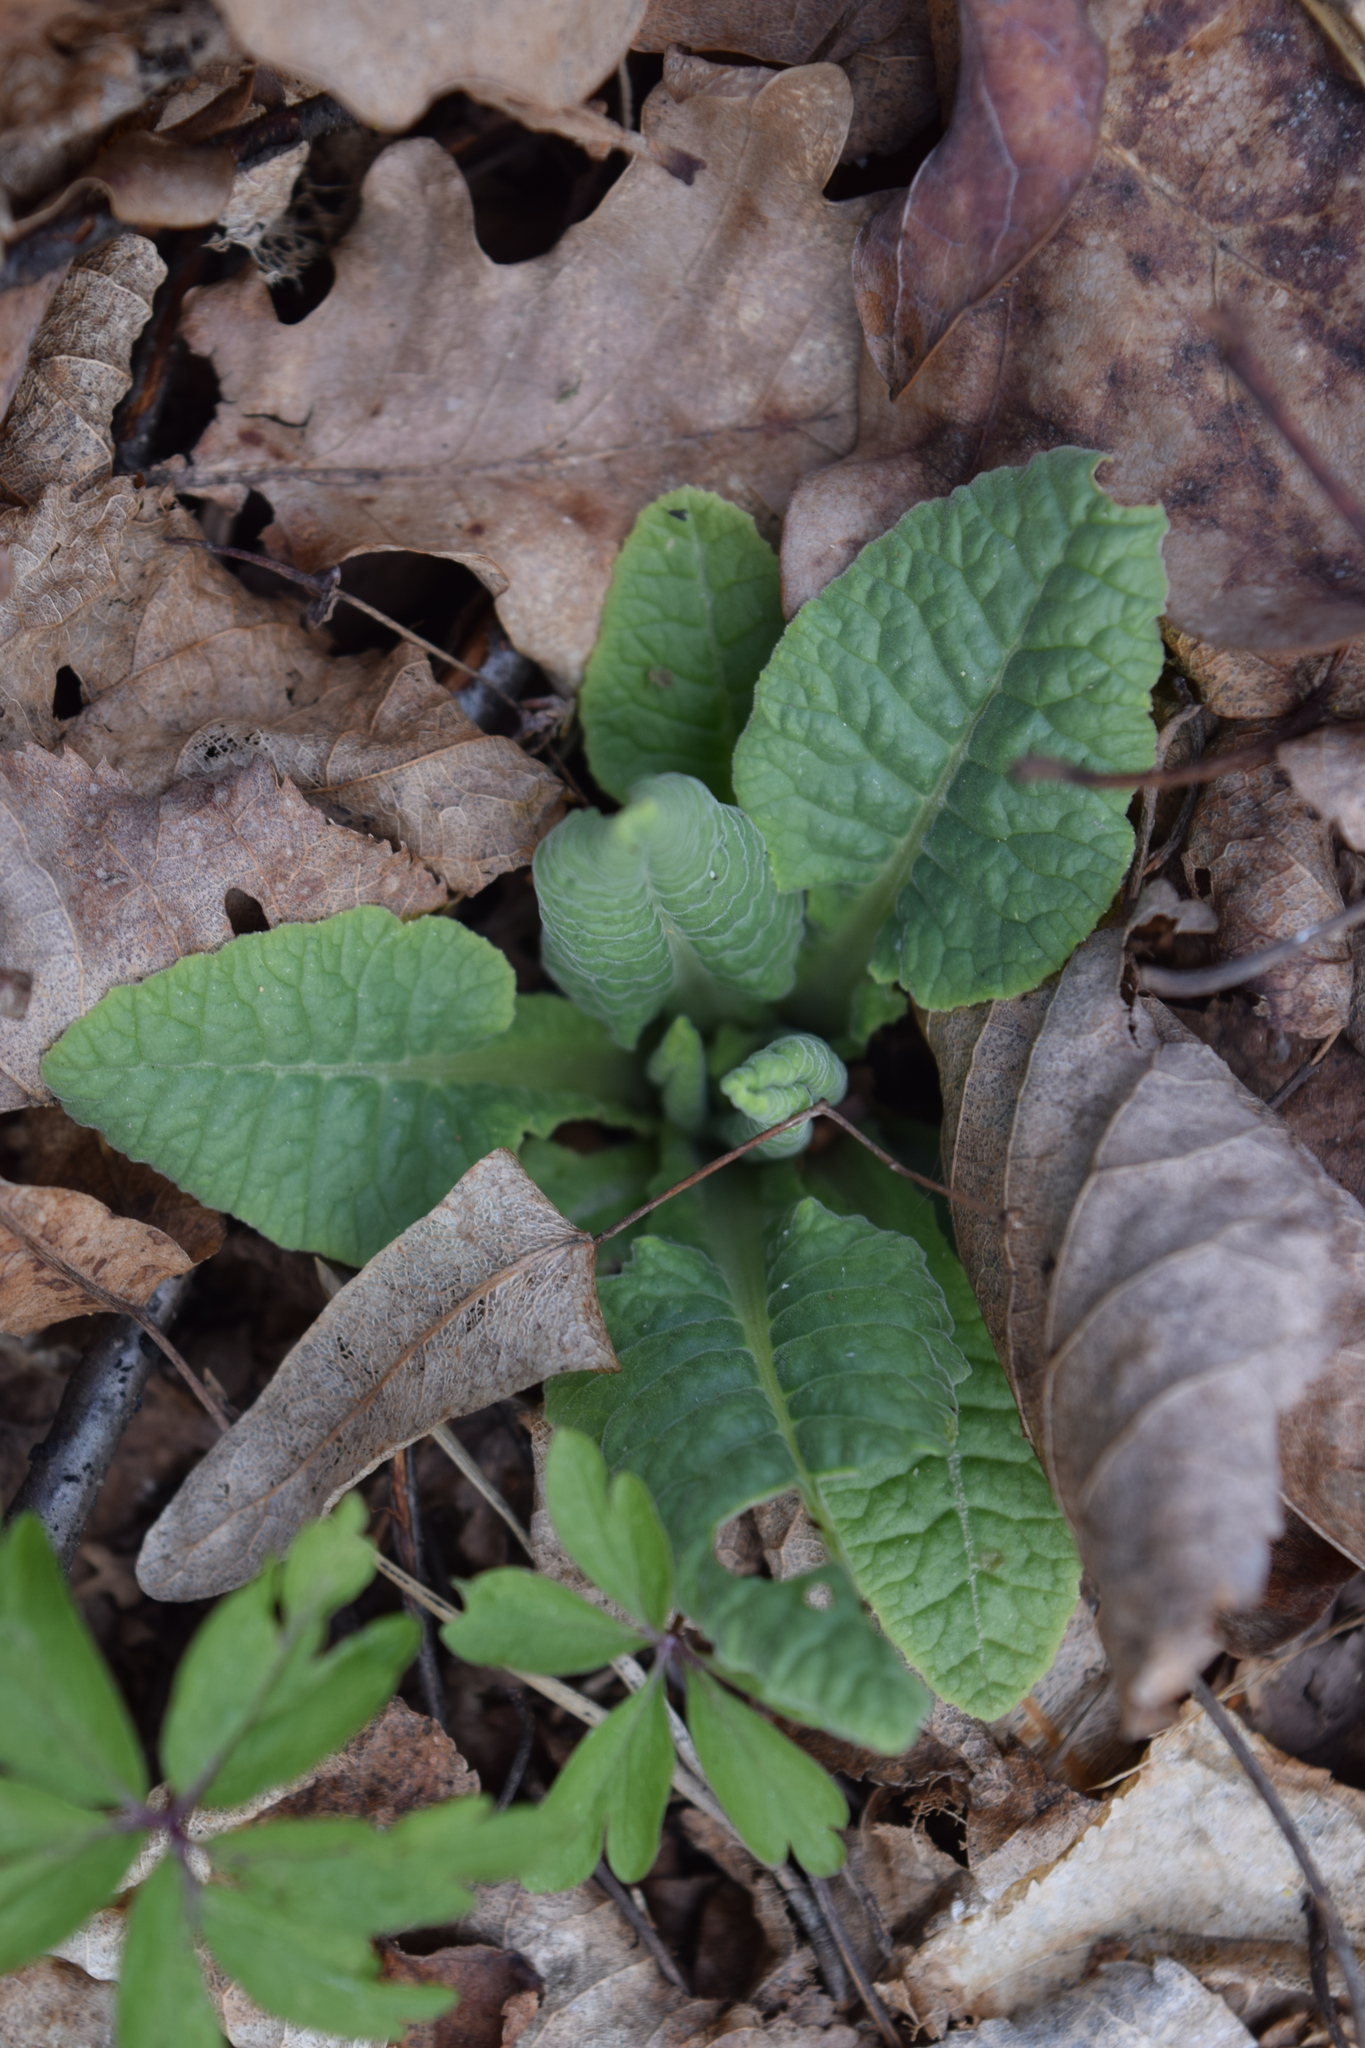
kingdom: Plantae
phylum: Tracheophyta
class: Magnoliopsida
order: Ericales
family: Primulaceae
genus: Primula
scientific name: Primula veris
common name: Cowslip
